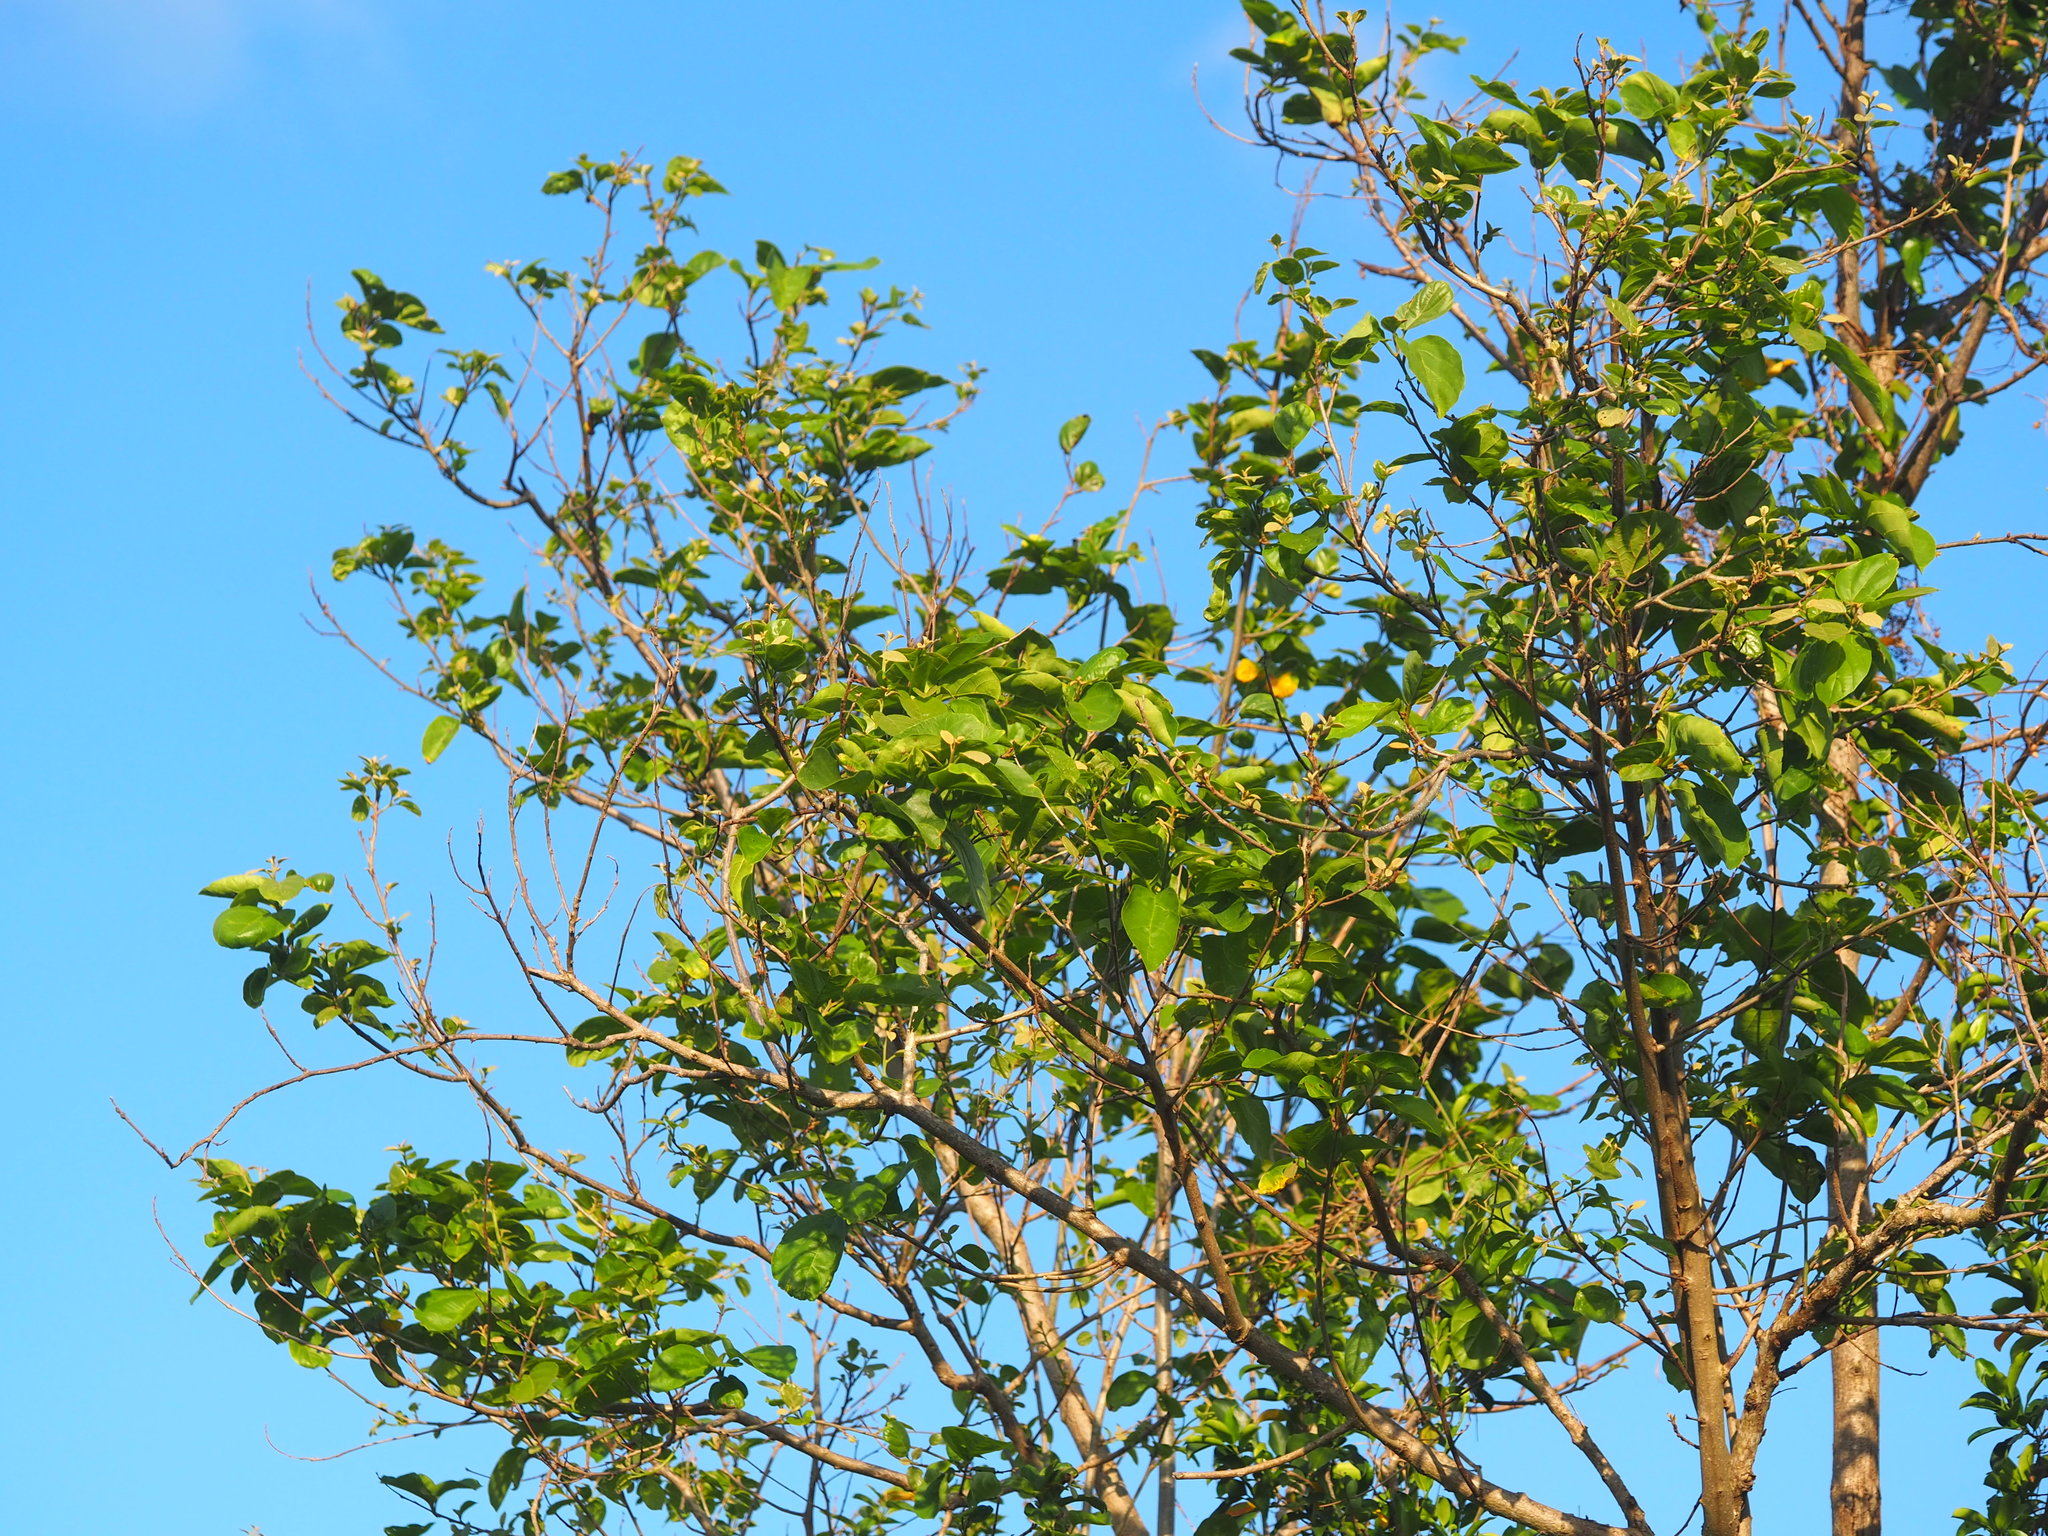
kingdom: Plantae
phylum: Tracheophyta
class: Magnoliopsida
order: Boraginales
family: Cordiaceae
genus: Cordia
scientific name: Cordia dichotoma
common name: Fragrant manjack
